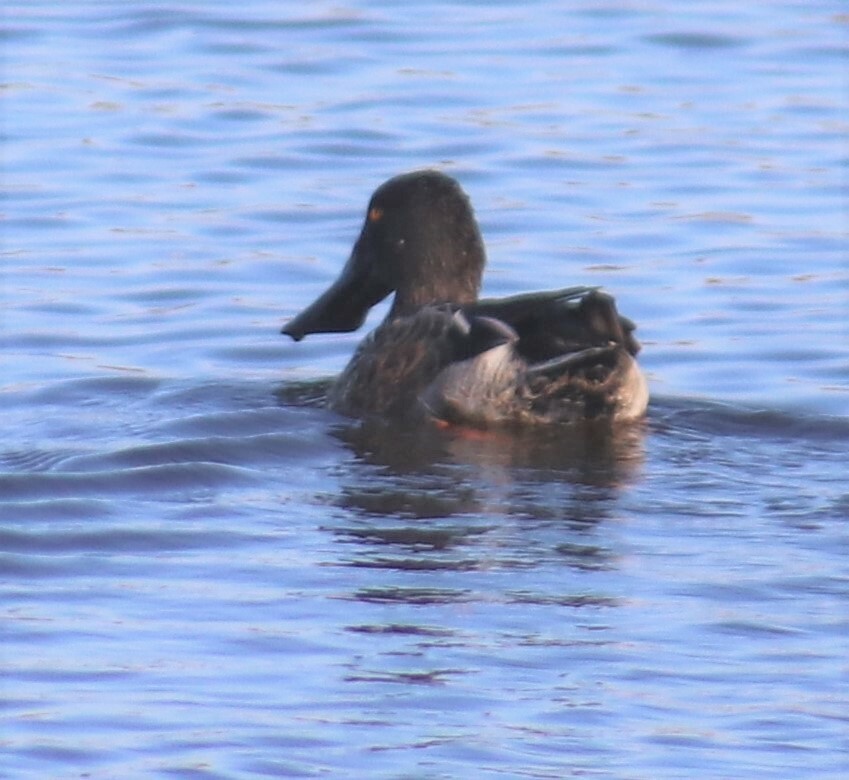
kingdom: Animalia
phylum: Chordata
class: Aves
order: Anseriformes
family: Anatidae
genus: Spatula
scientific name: Spatula clypeata
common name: Northern shoveler
